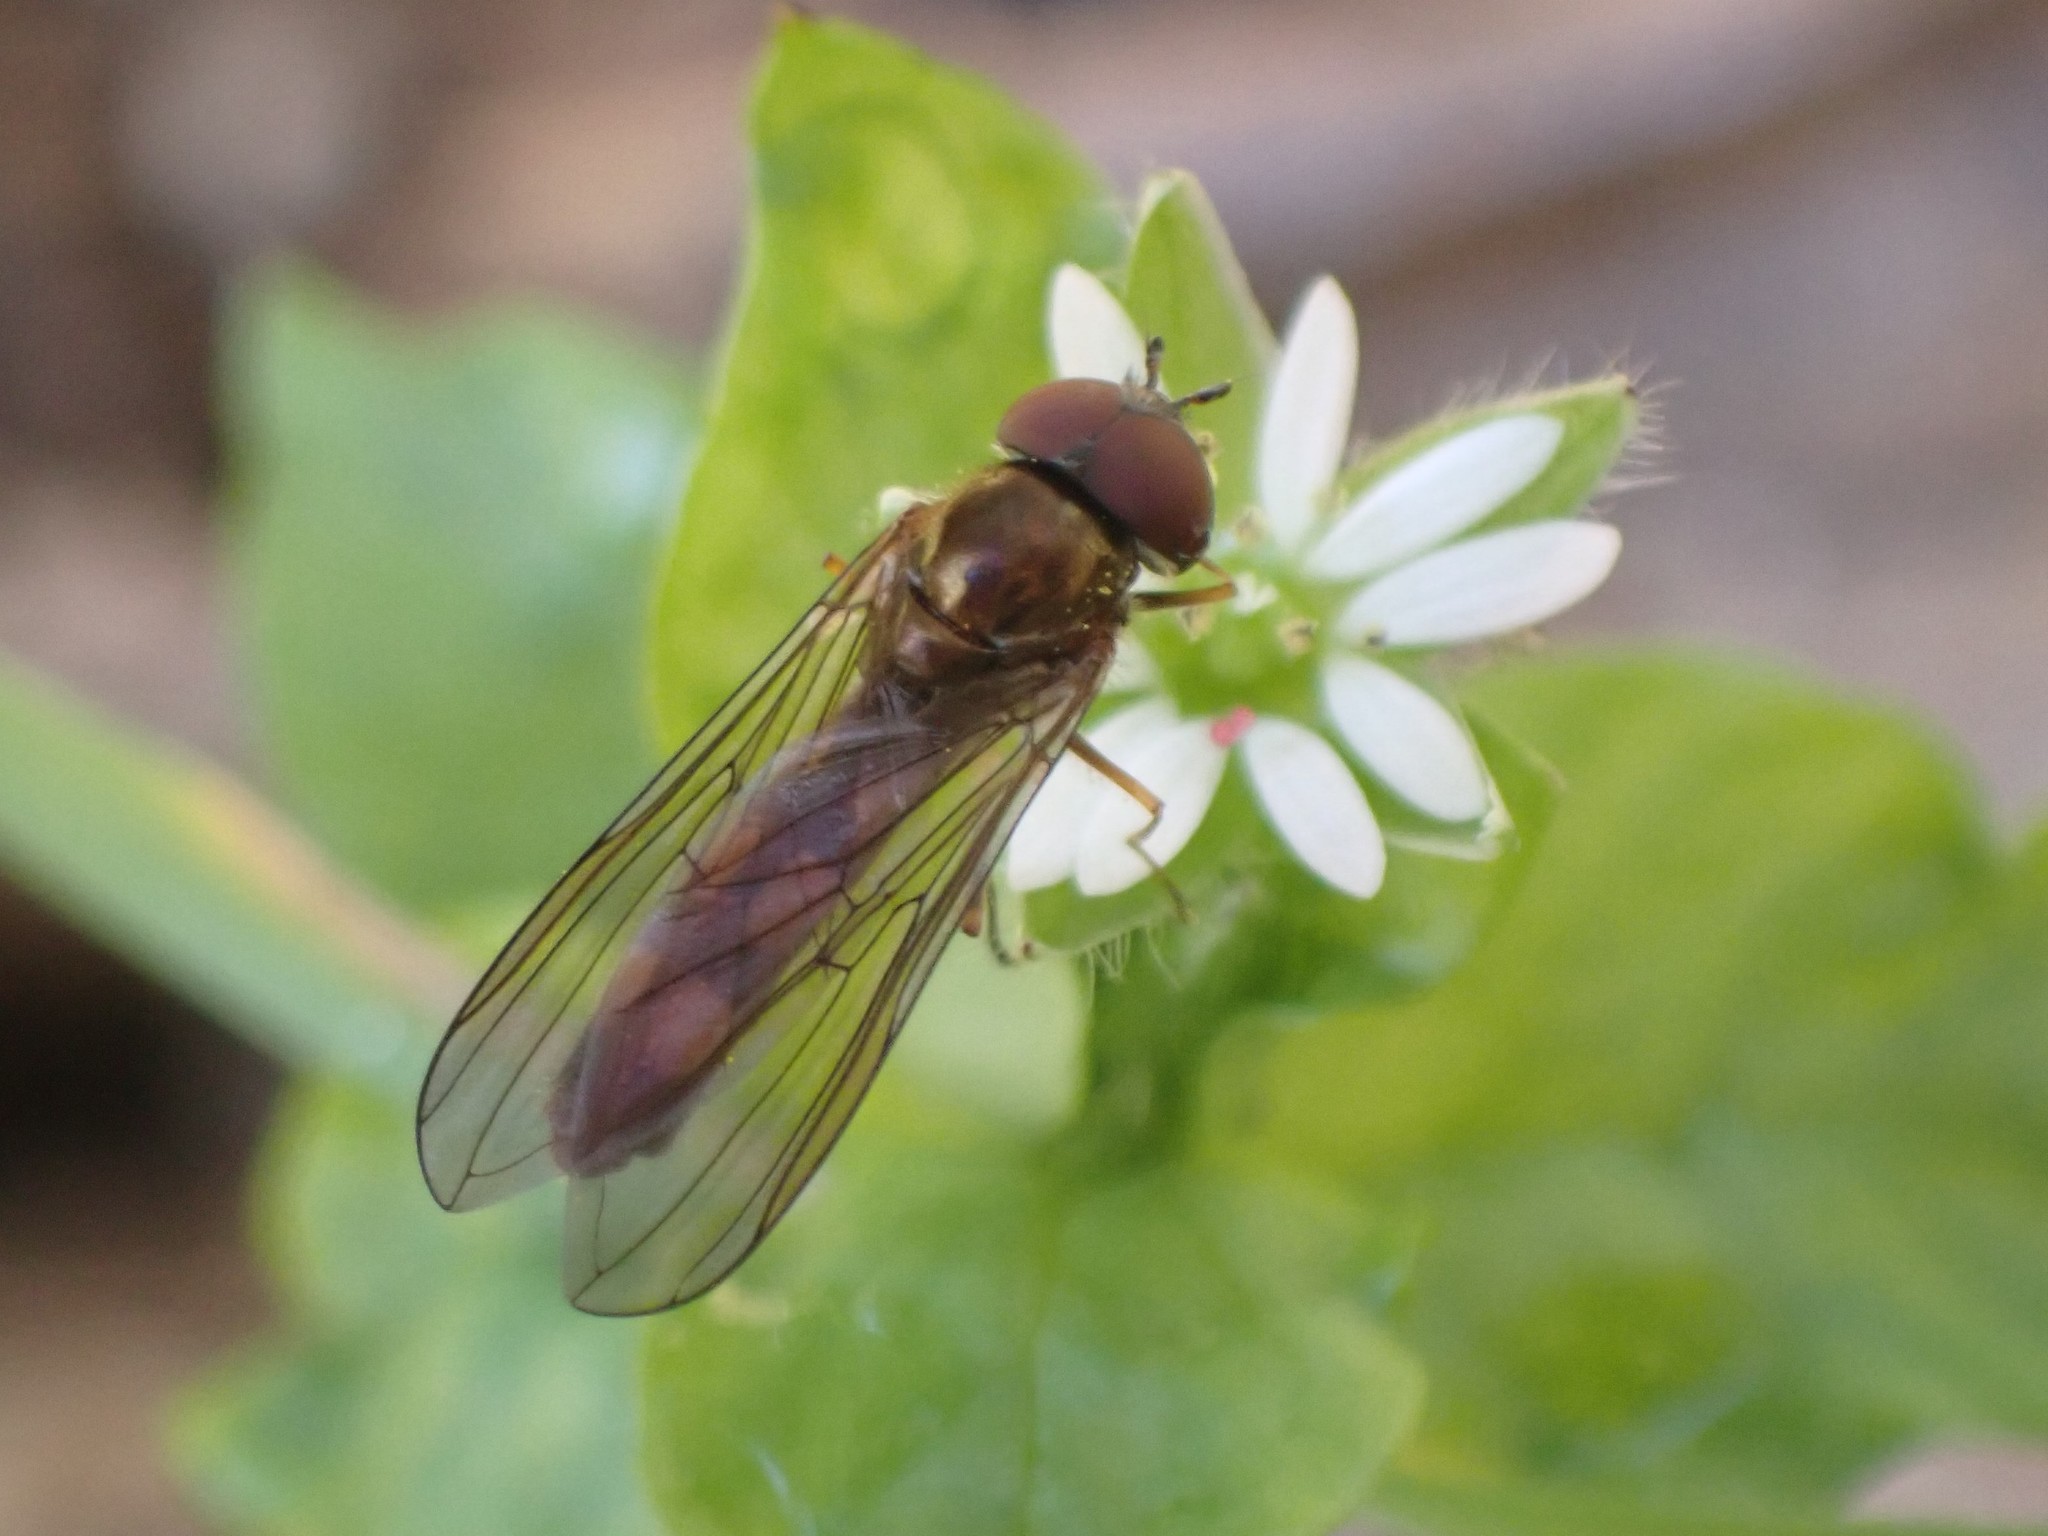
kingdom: Animalia
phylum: Arthropoda
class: Insecta
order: Diptera
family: Syrphidae
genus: Melanostoma
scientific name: Melanostoma mellina
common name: Hover fly
